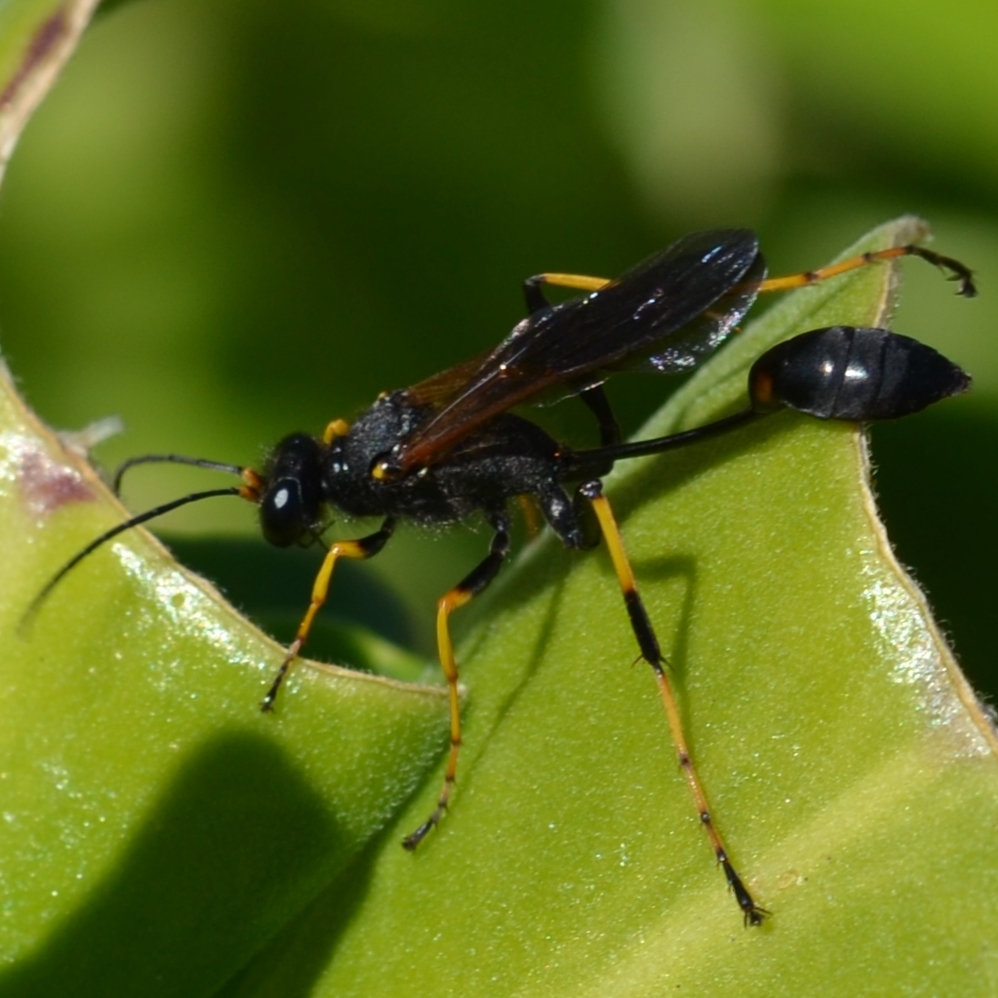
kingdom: Animalia
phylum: Arthropoda
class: Insecta
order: Hymenoptera
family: Sphecidae
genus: Sceliphron
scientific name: Sceliphron caementarium
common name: Mud dauber
